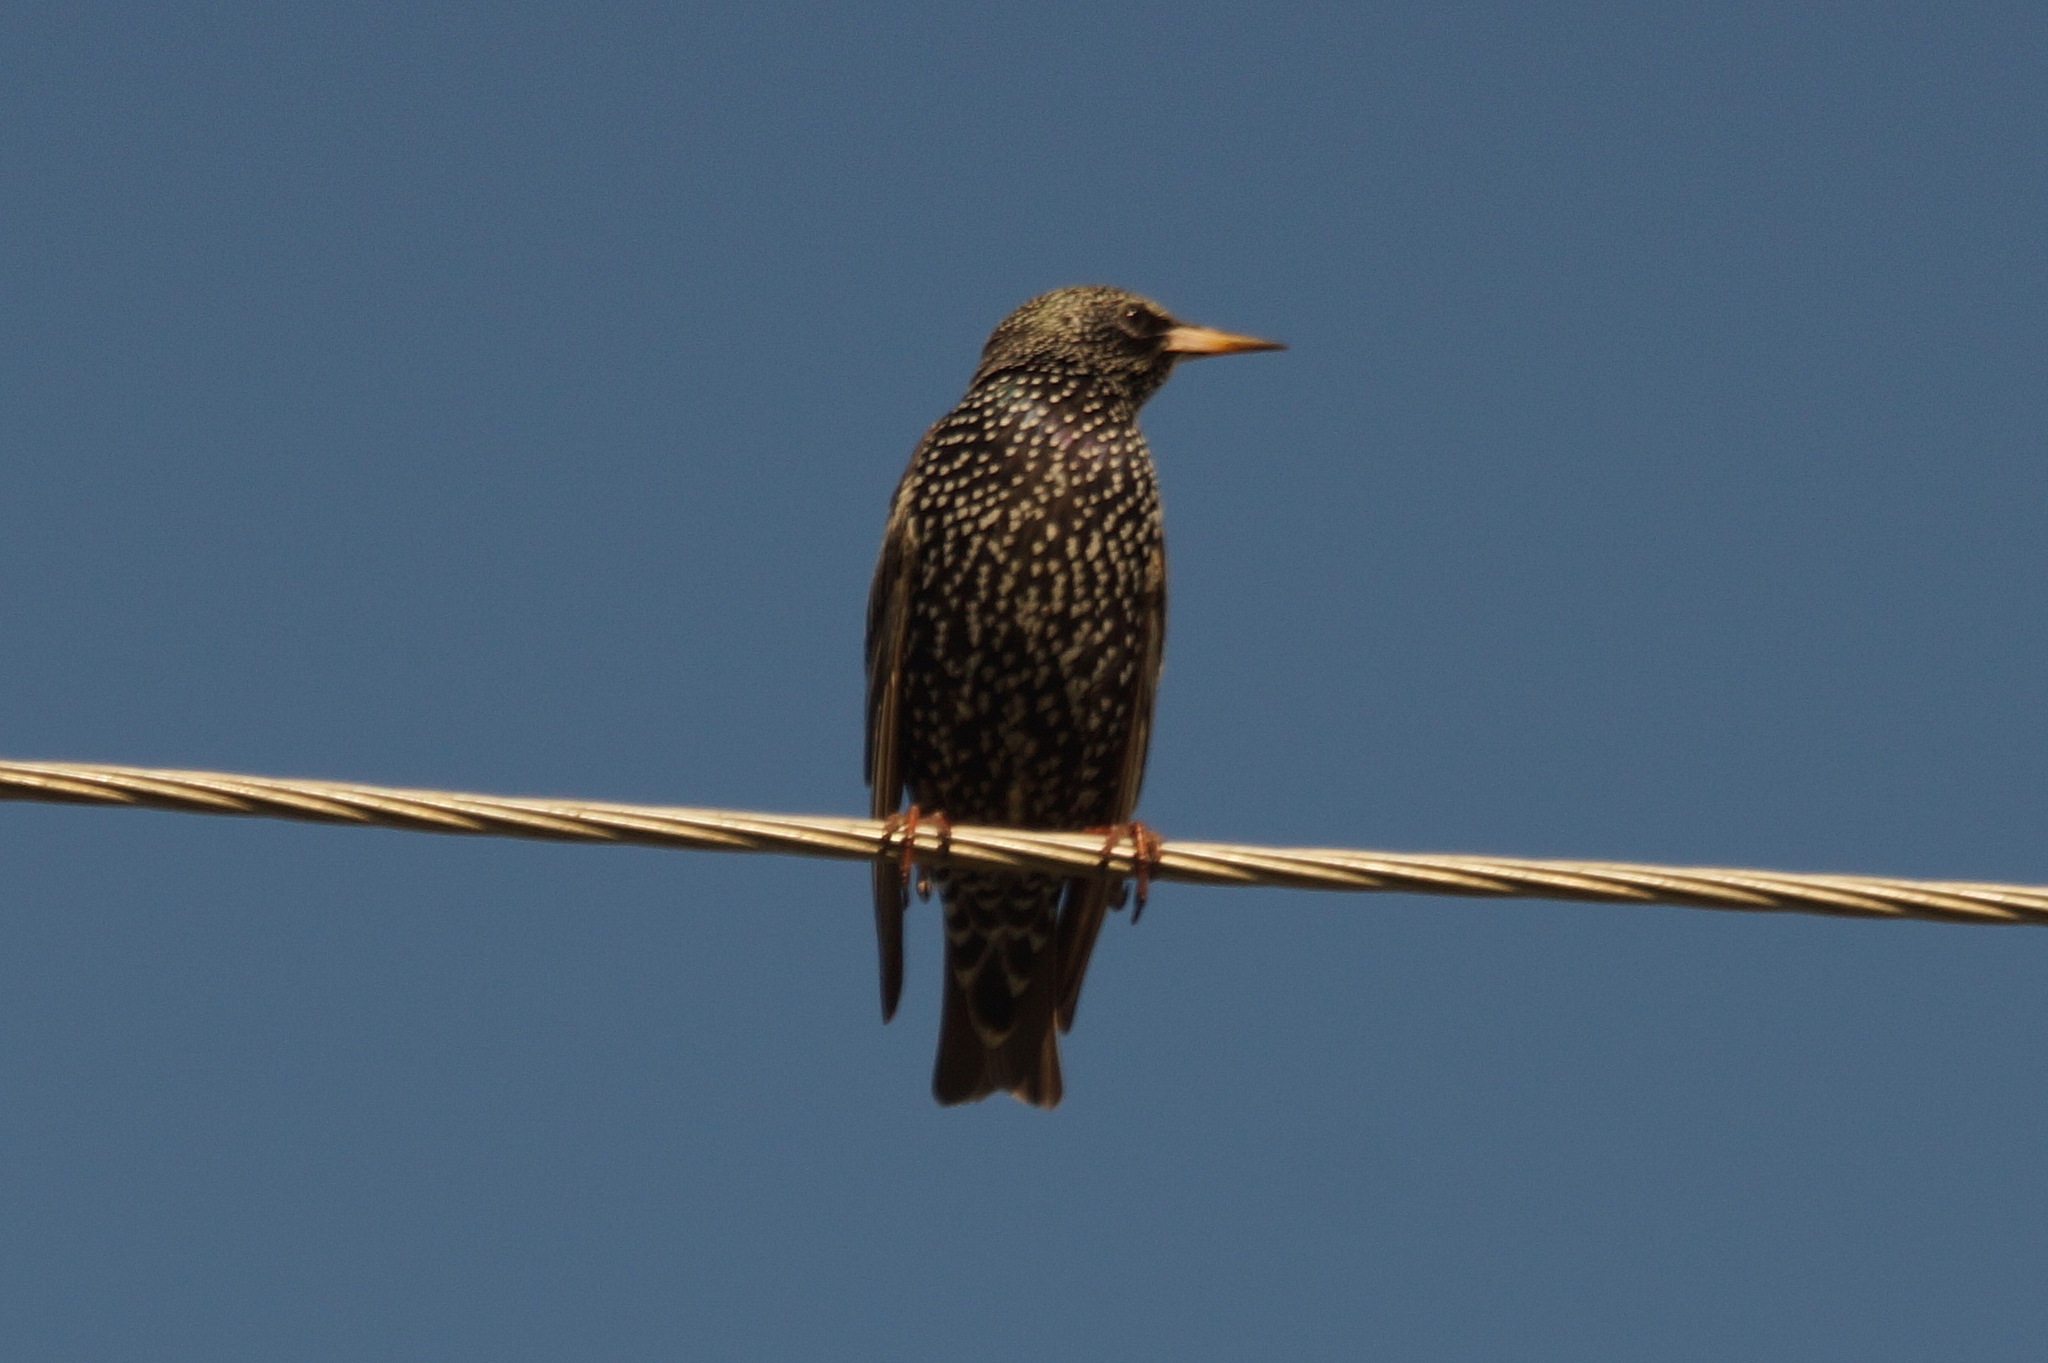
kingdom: Animalia
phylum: Chordata
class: Aves
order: Passeriformes
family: Sturnidae
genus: Sturnus
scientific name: Sturnus vulgaris
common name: Common starling
